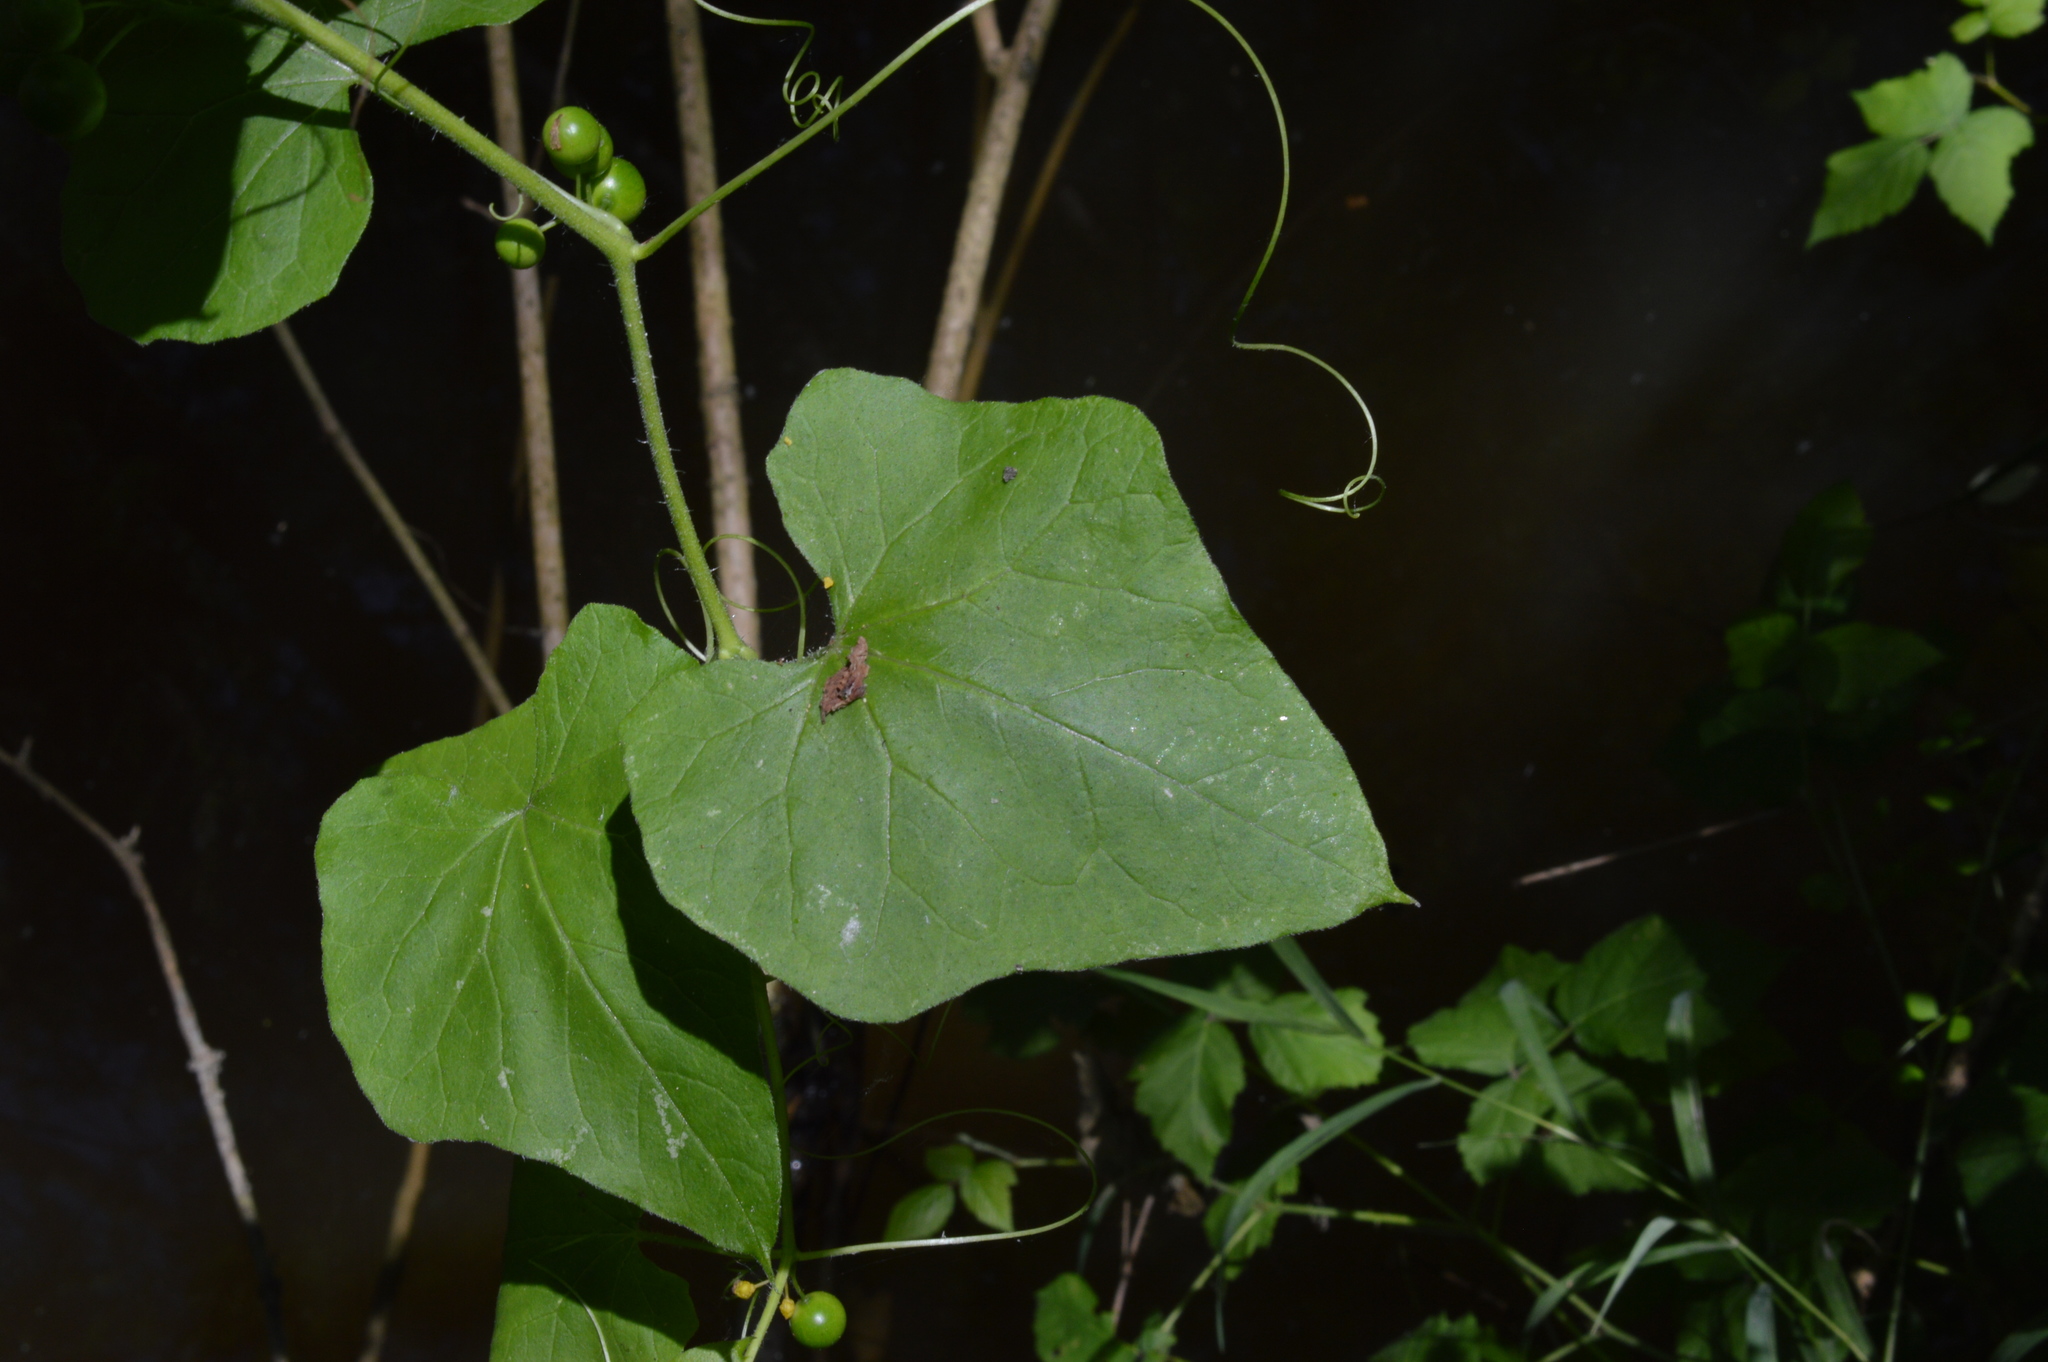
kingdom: Plantae
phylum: Tracheophyta
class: Magnoliopsida
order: Cucurbitales
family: Cucurbitaceae
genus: Bryonia
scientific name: Bryonia cretica
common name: Cretan bryony
